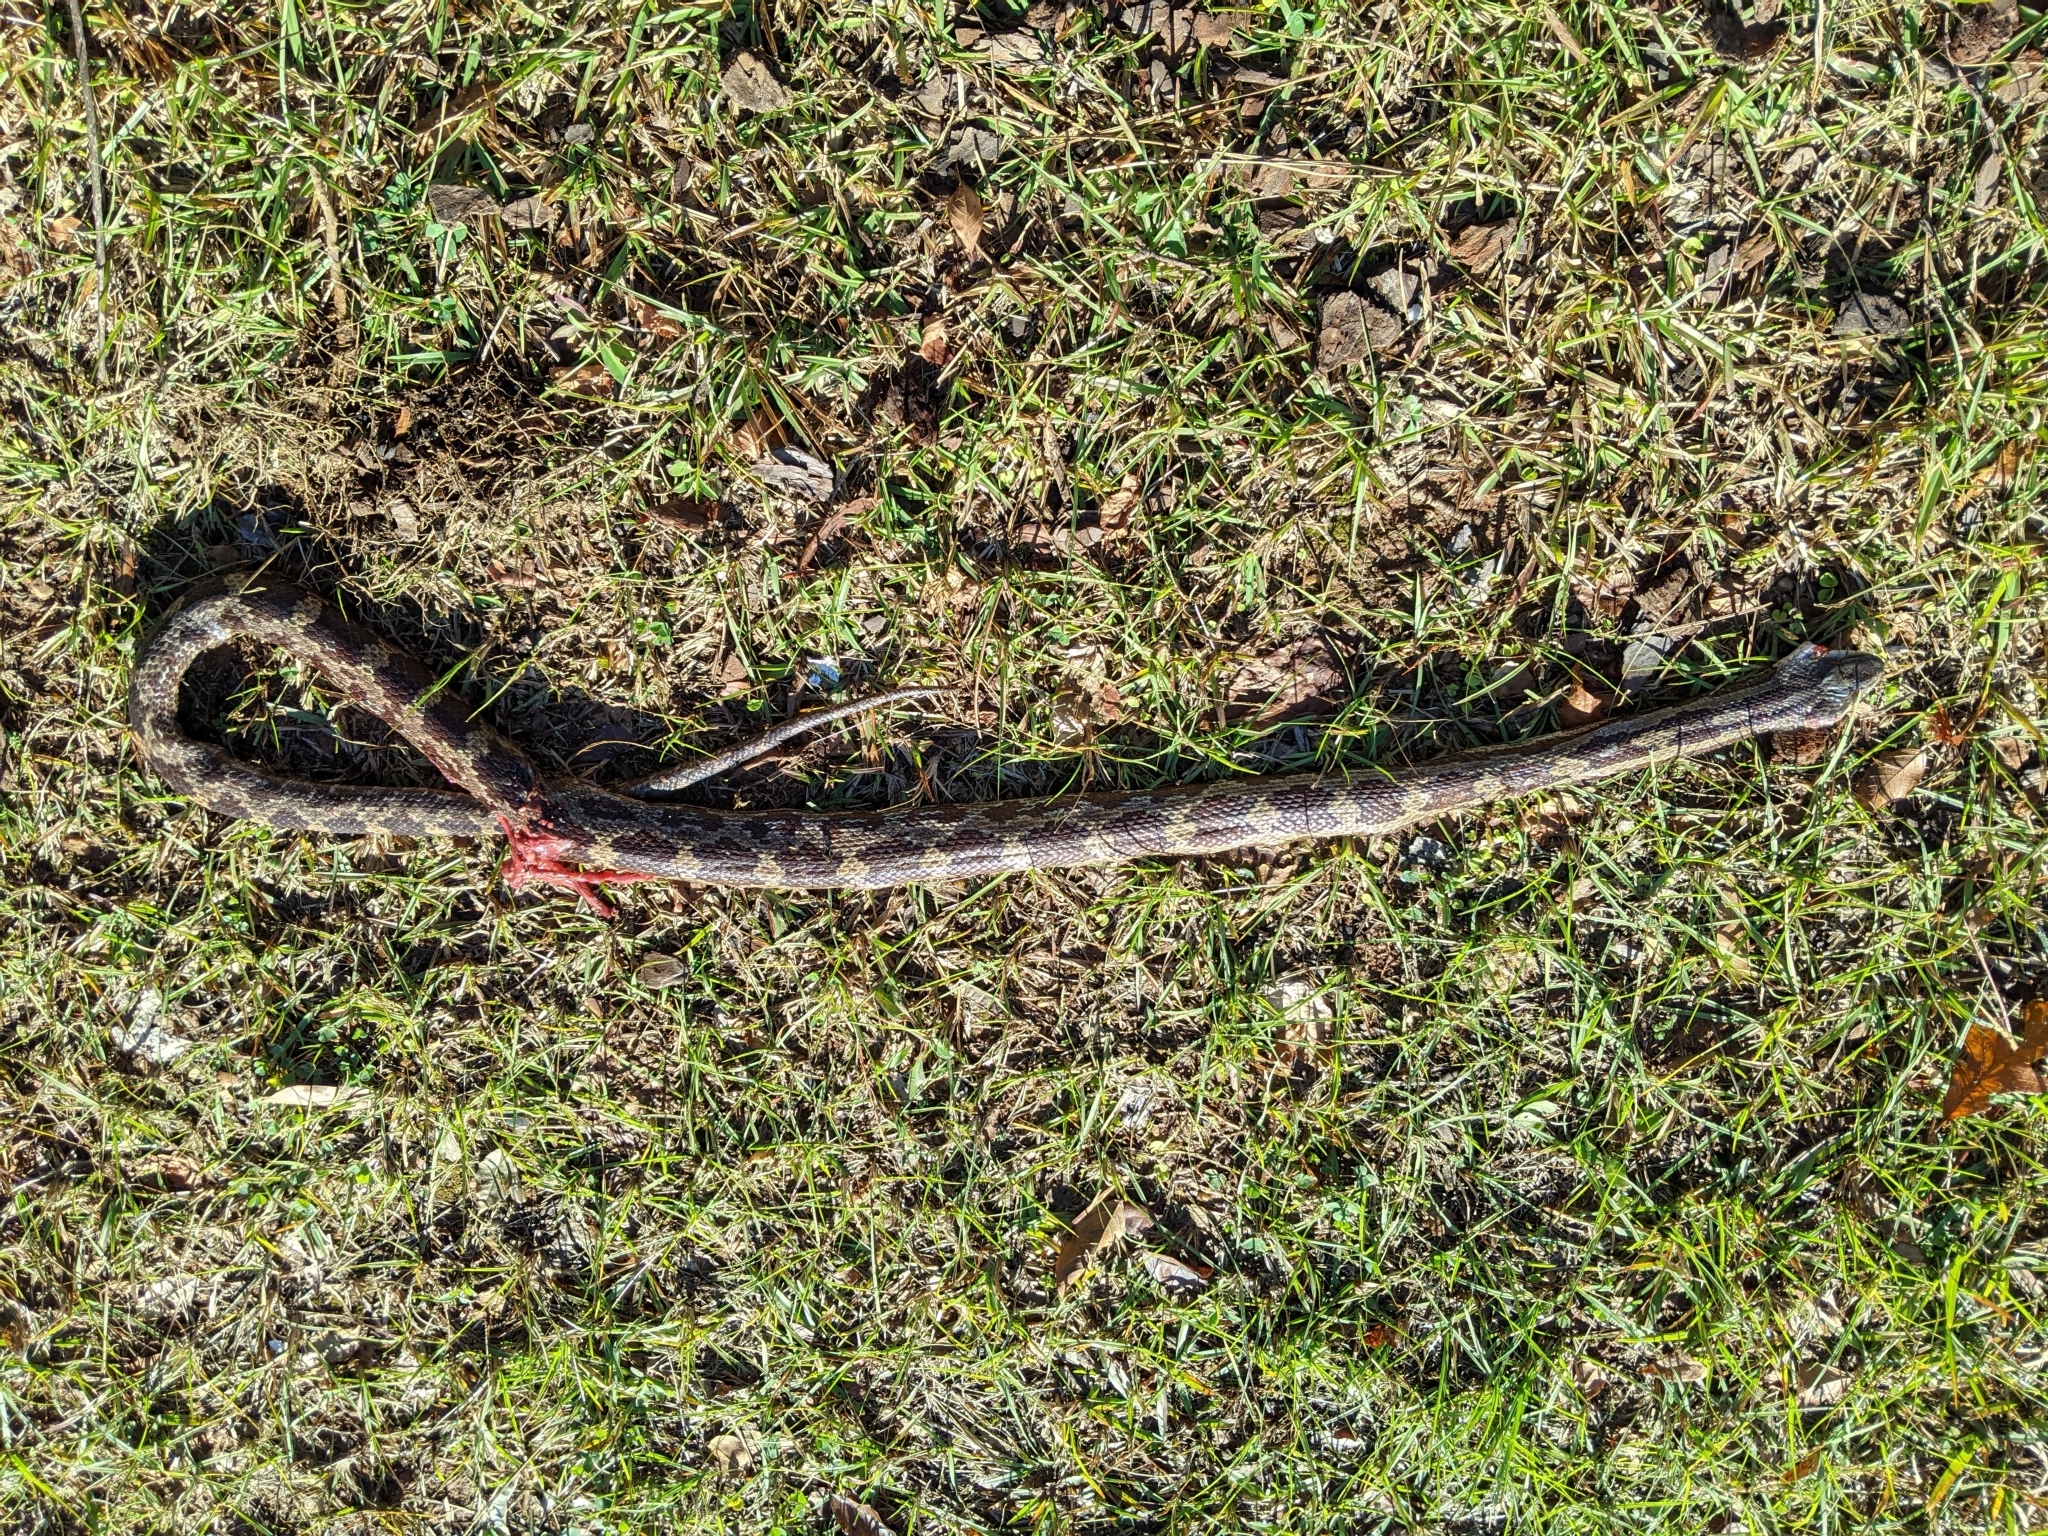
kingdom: Animalia
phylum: Chordata
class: Squamata
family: Colubridae
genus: Pantherophis
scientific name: Pantherophis spiloides
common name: Gray rat snake
